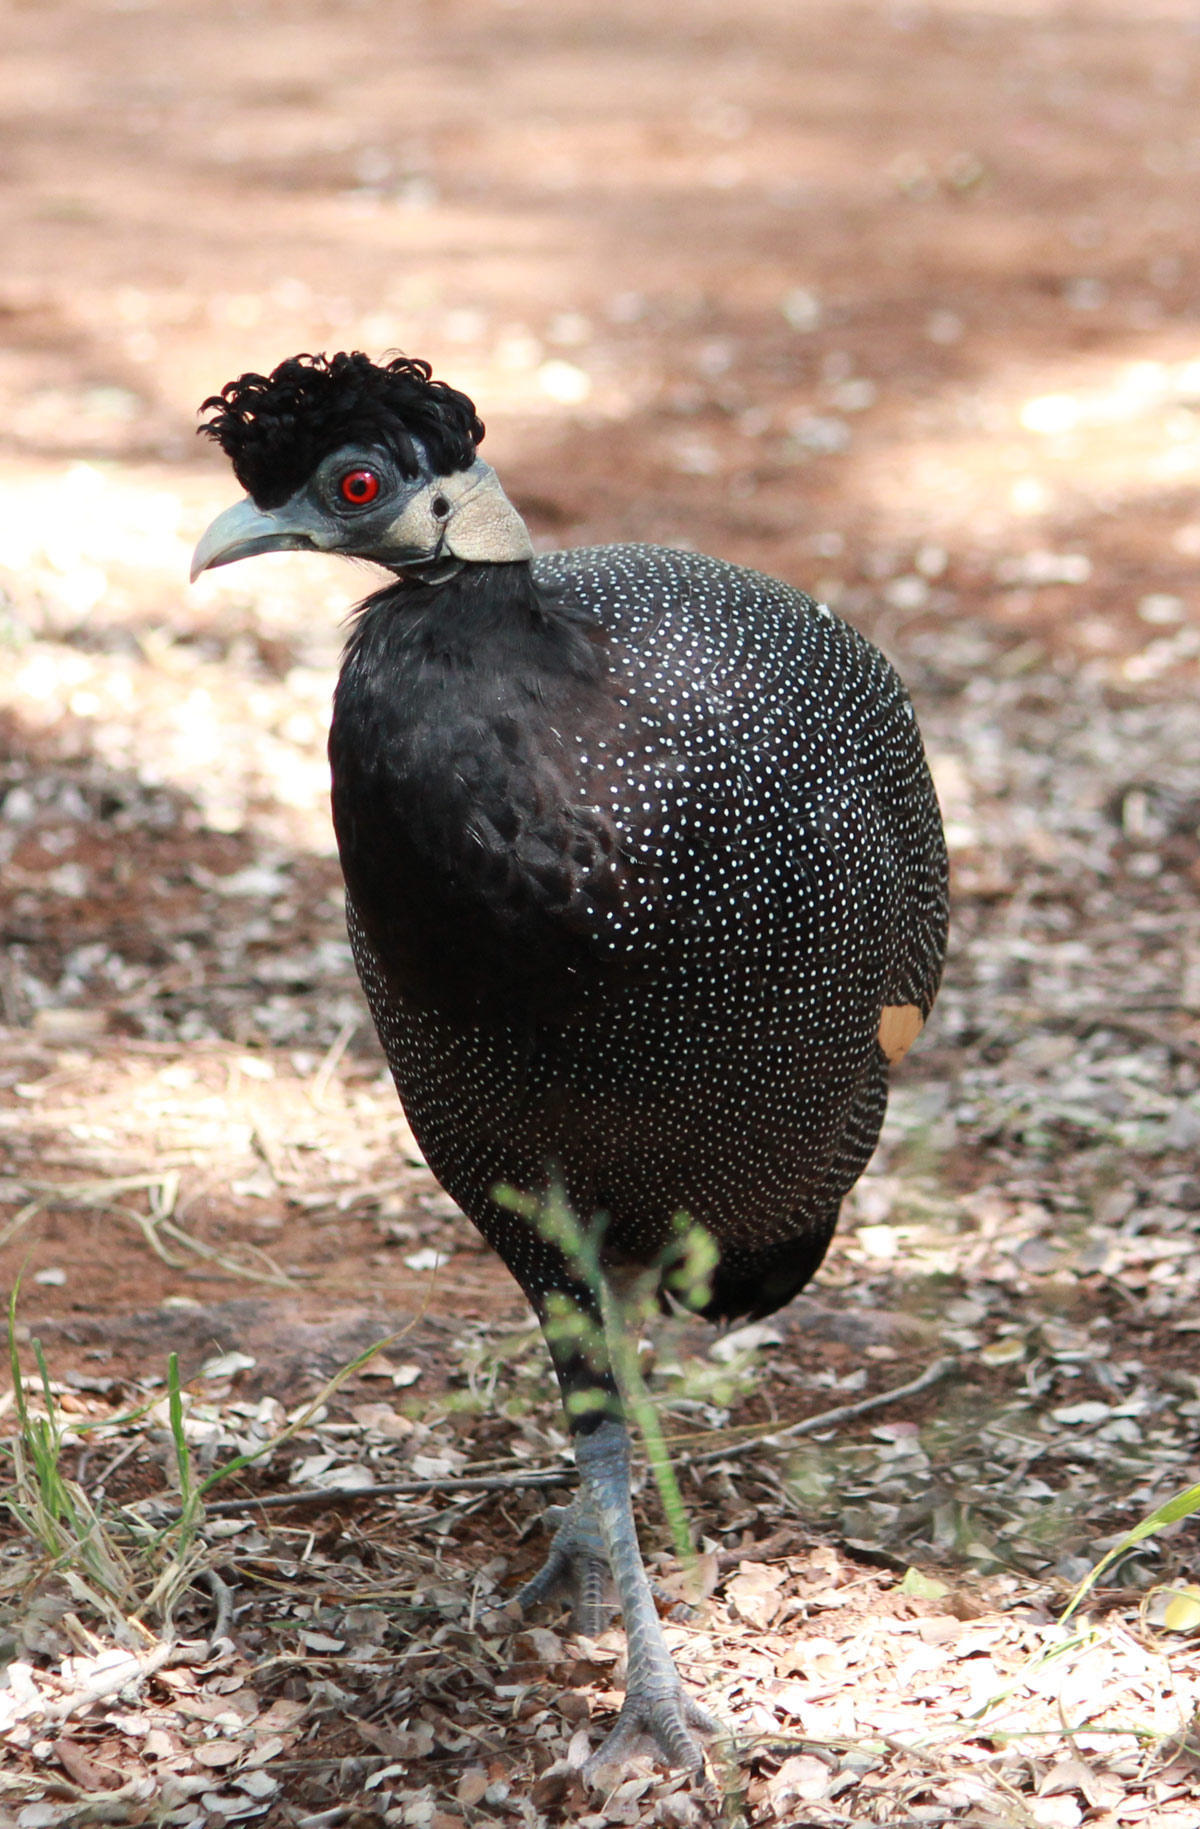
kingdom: Animalia
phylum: Chordata
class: Aves
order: Galliformes
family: Numididae
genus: Guttera
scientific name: Guttera pucherani
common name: Crested guineafowl
